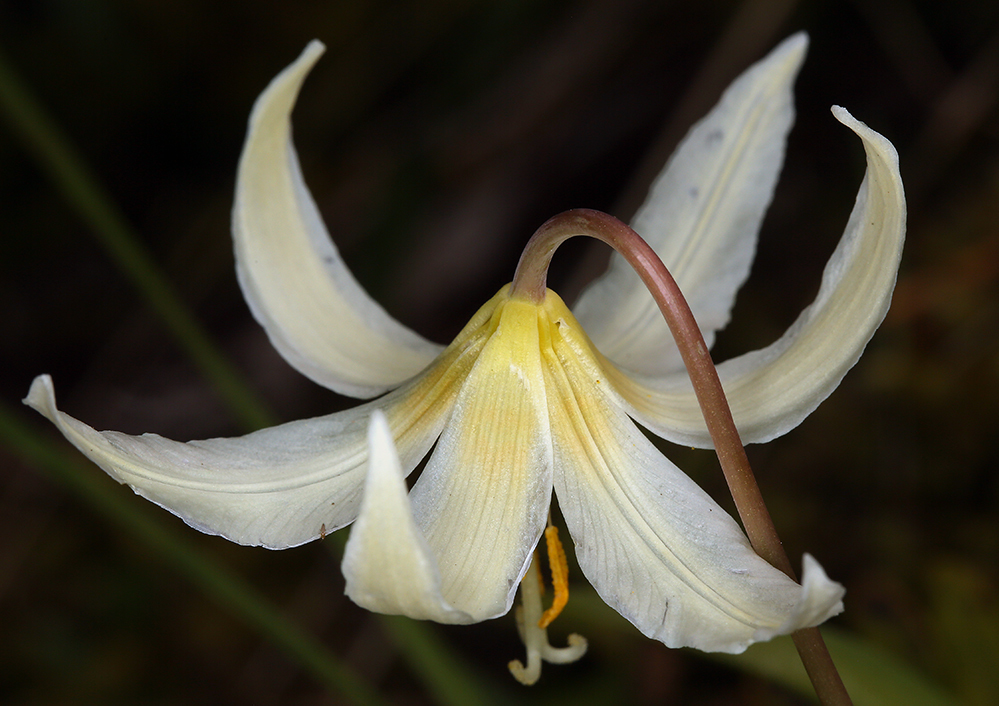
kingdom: Plantae
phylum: Tracheophyta
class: Liliopsida
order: Liliales
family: Liliaceae
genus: Erythronium
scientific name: Erythronium oregonum
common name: Giant adder's-tongue
